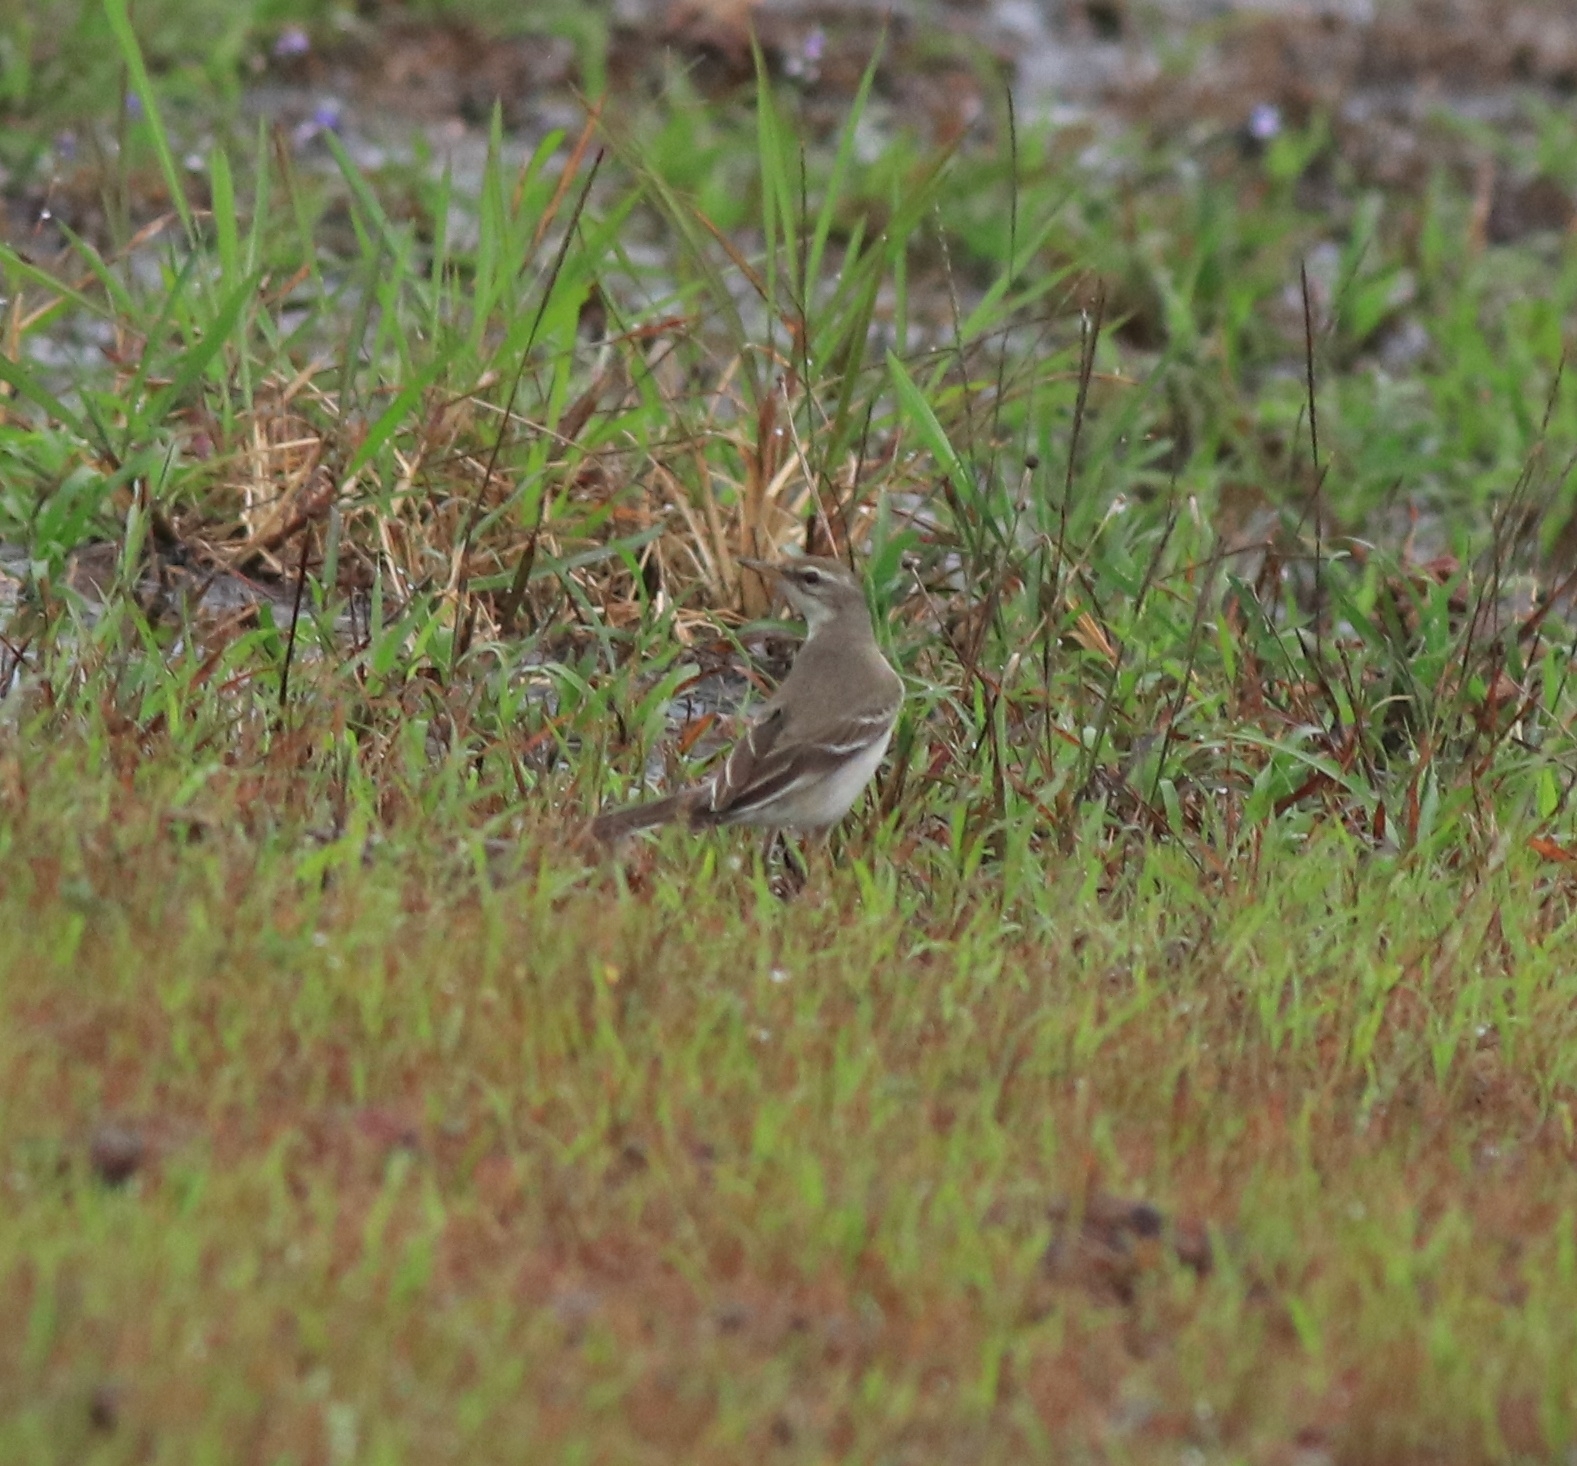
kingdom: Animalia
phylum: Chordata
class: Aves
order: Passeriformes
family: Motacillidae
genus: Motacilla
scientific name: Motacilla flava
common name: Western yellow wagtail
